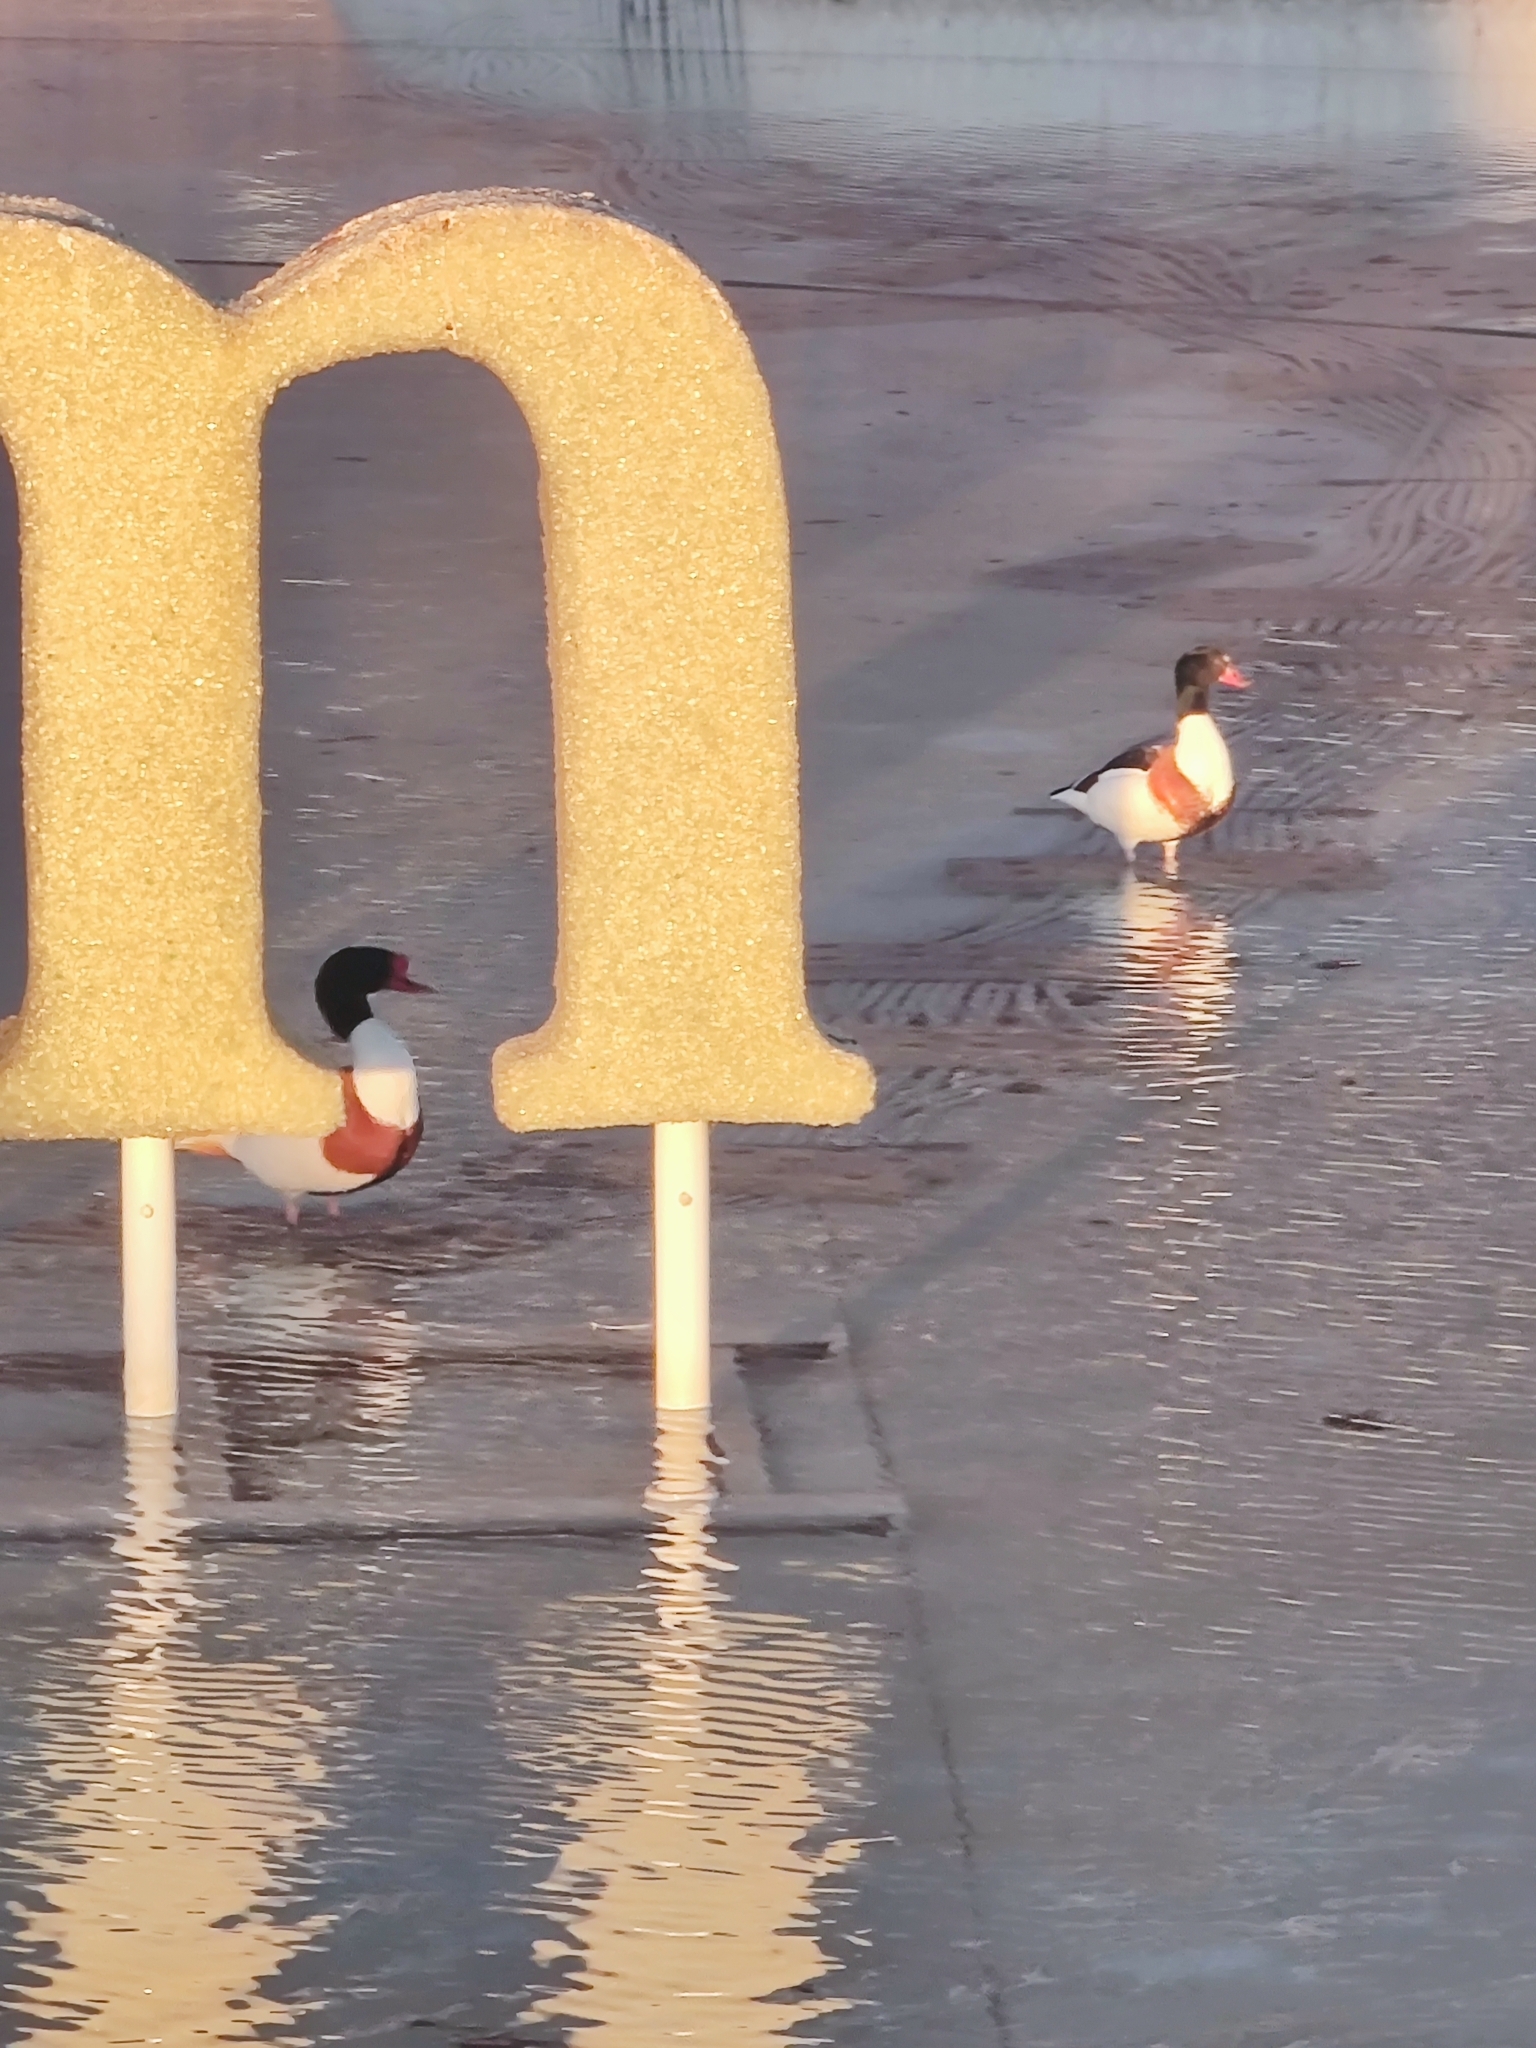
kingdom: Animalia
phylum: Chordata
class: Aves
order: Anseriformes
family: Anatidae
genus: Tadorna
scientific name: Tadorna tadorna
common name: Common shelduck
